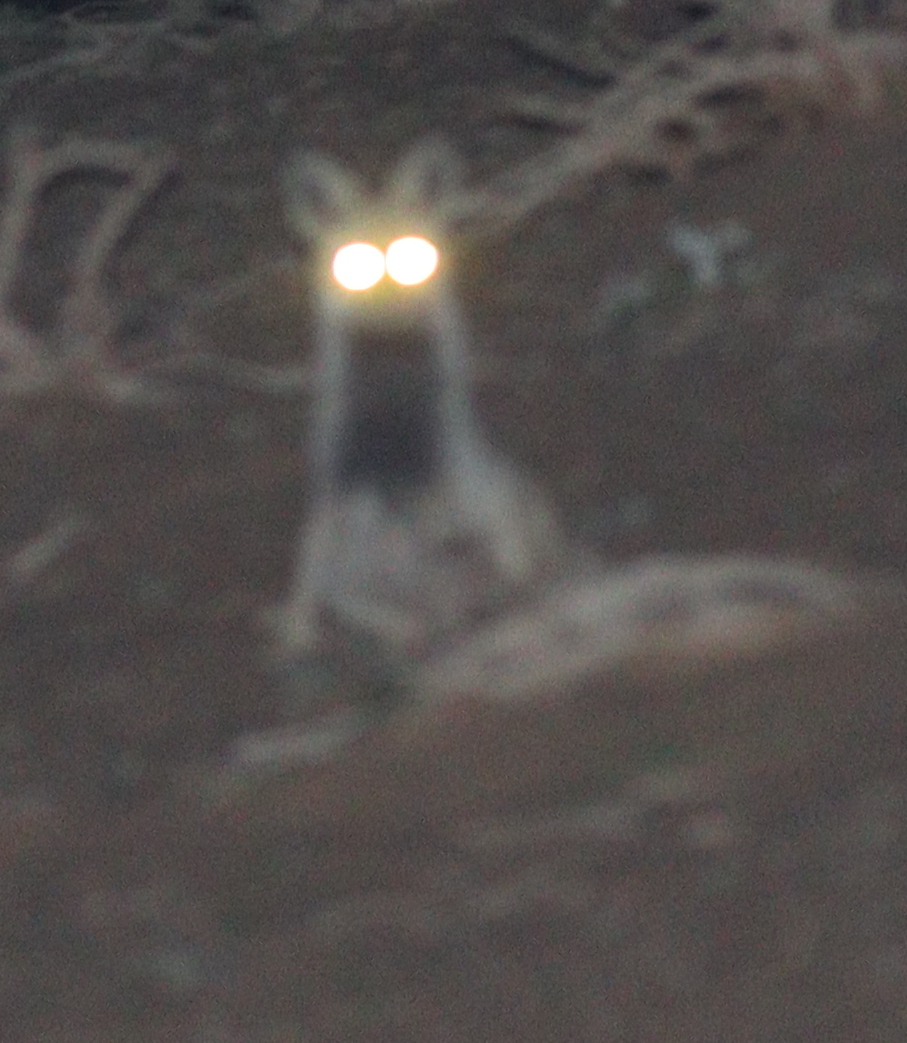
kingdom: Animalia
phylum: Chordata
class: Mammalia
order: Carnivora
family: Canidae
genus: Vulpes
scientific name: Vulpes vulpes
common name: Red fox
